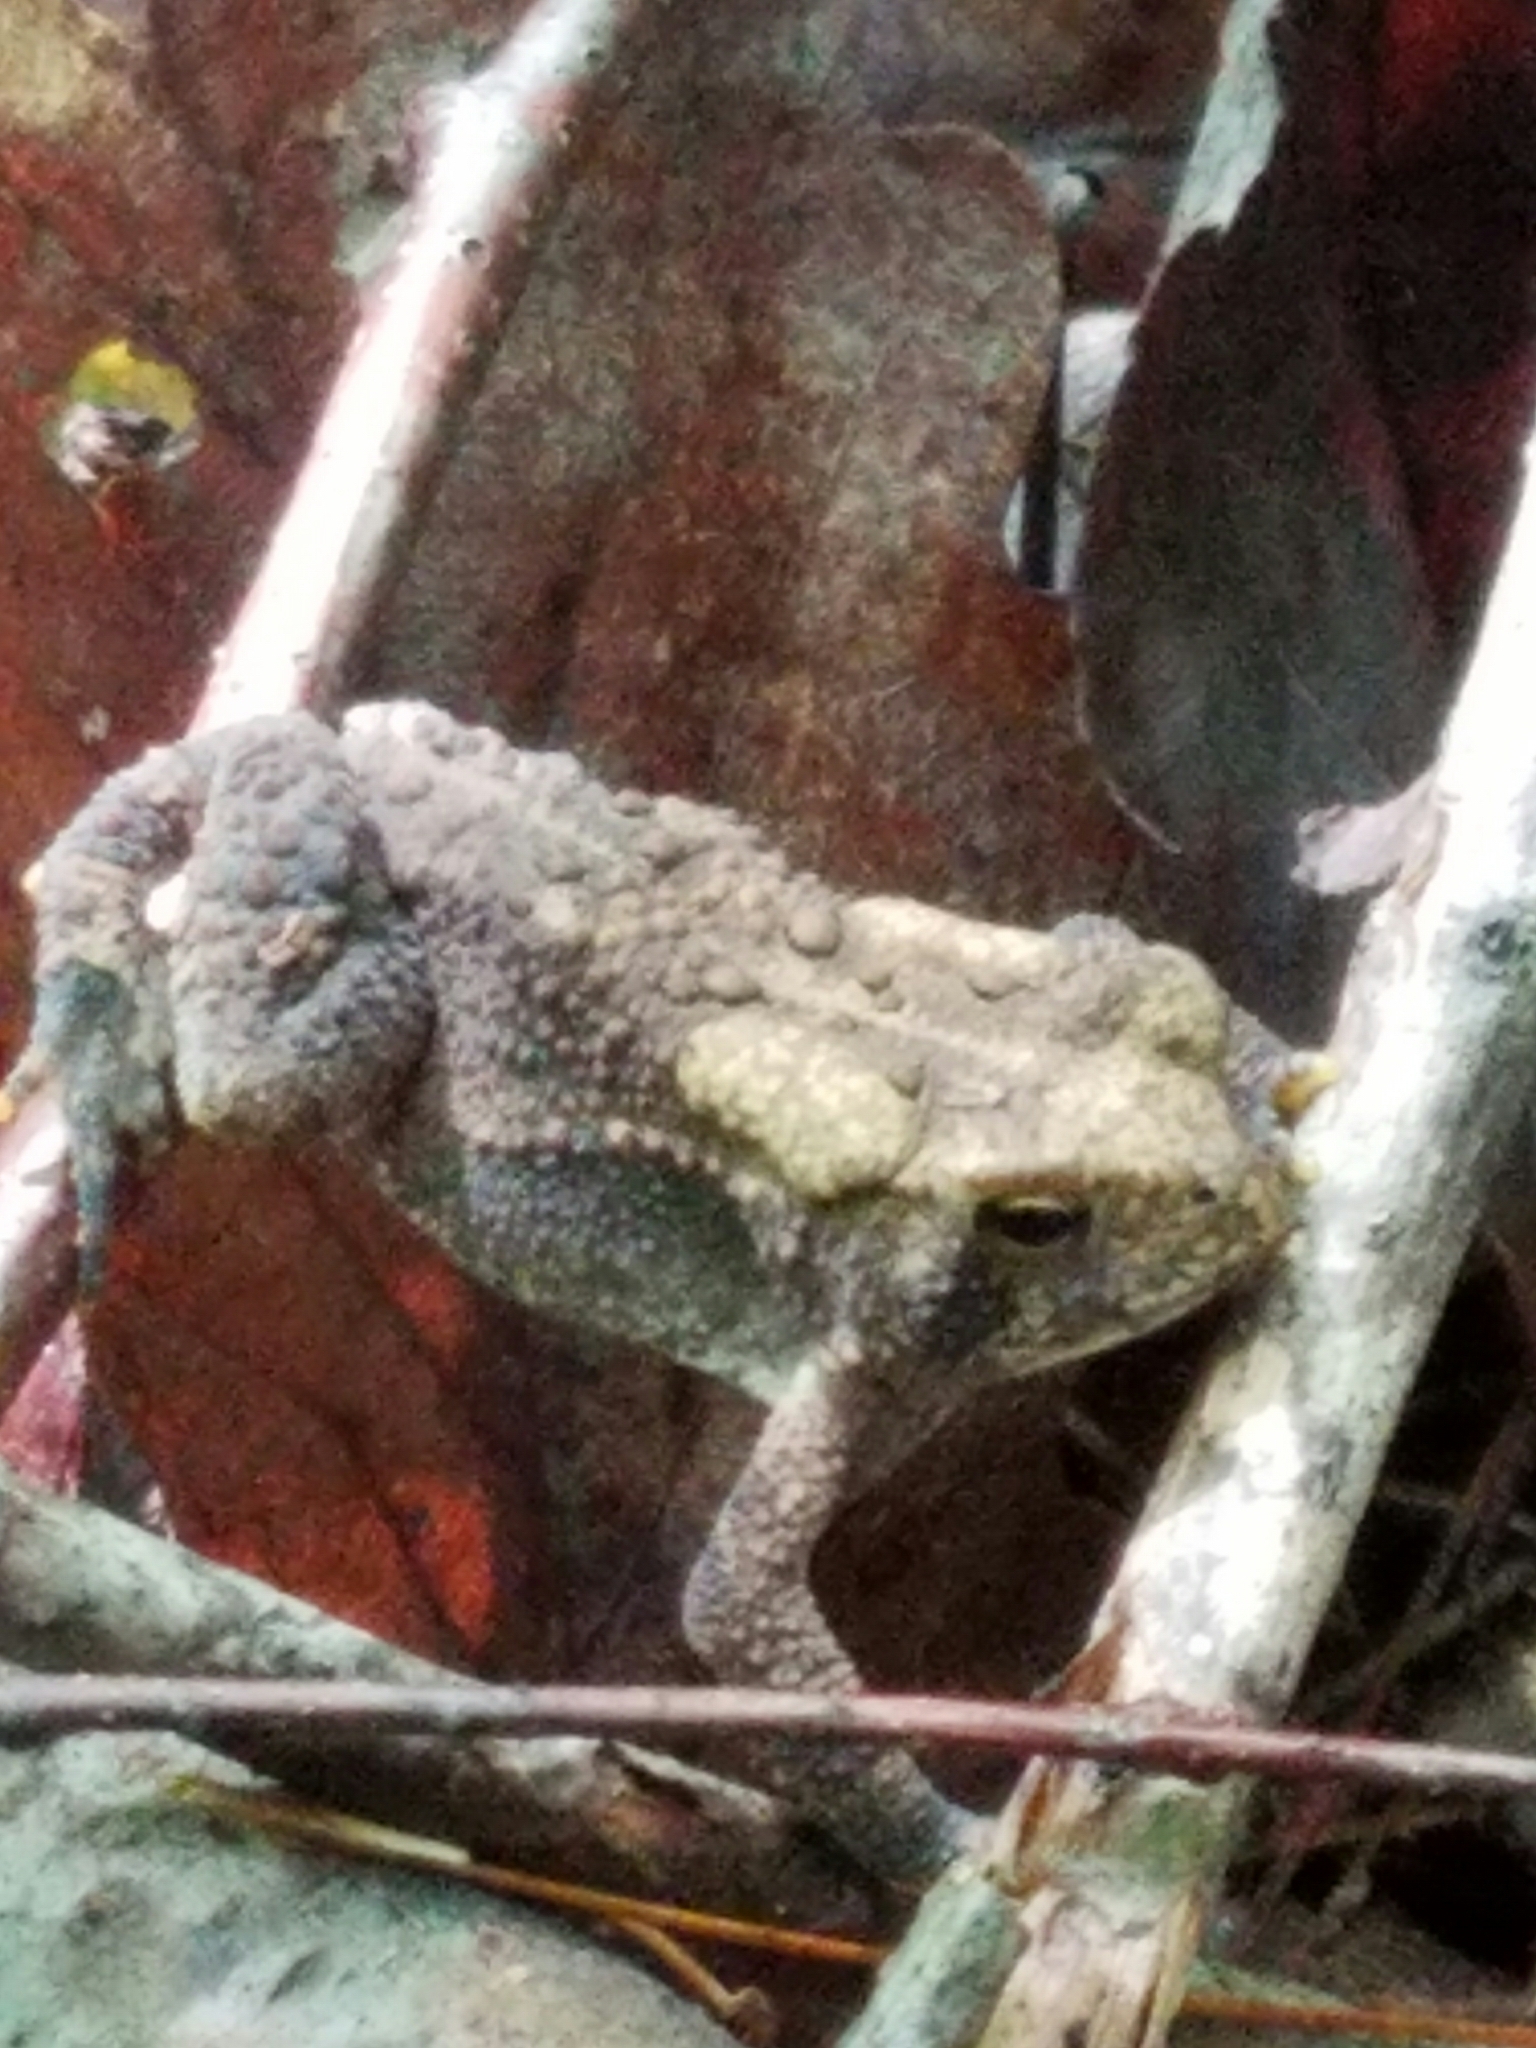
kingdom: Animalia
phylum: Chordata
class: Amphibia
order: Anura
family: Bufonidae
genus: Anaxyrus
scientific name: Anaxyrus americanus
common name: American toad
